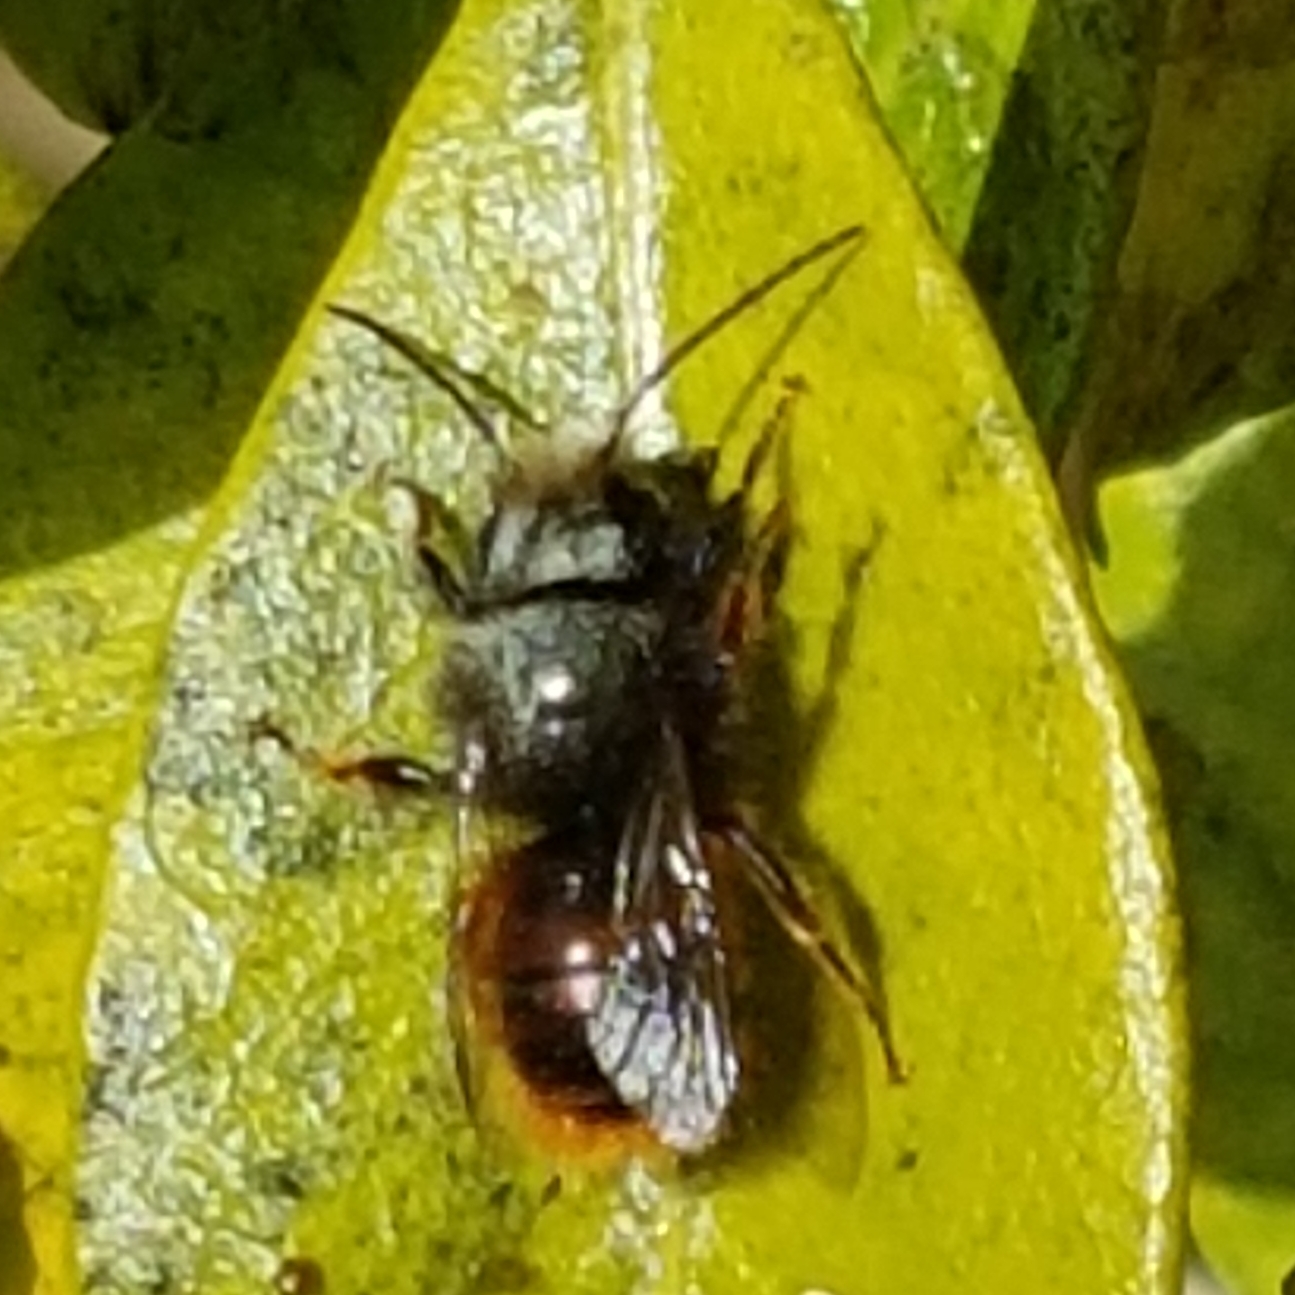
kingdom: Animalia
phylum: Arthropoda
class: Insecta
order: Hymenoptera
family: Megachilidae
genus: Osmia
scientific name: Osmia cornuta
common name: Mason bee
